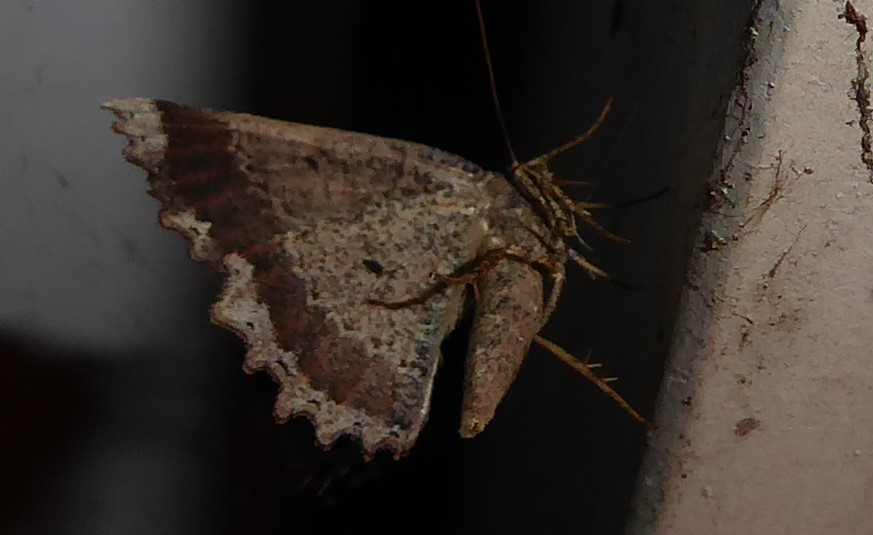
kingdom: Animalia
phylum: Arthropoda
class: Insecta
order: Lepidoptera
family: Geometridae
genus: Gellonia
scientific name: Gellonia pannularia
